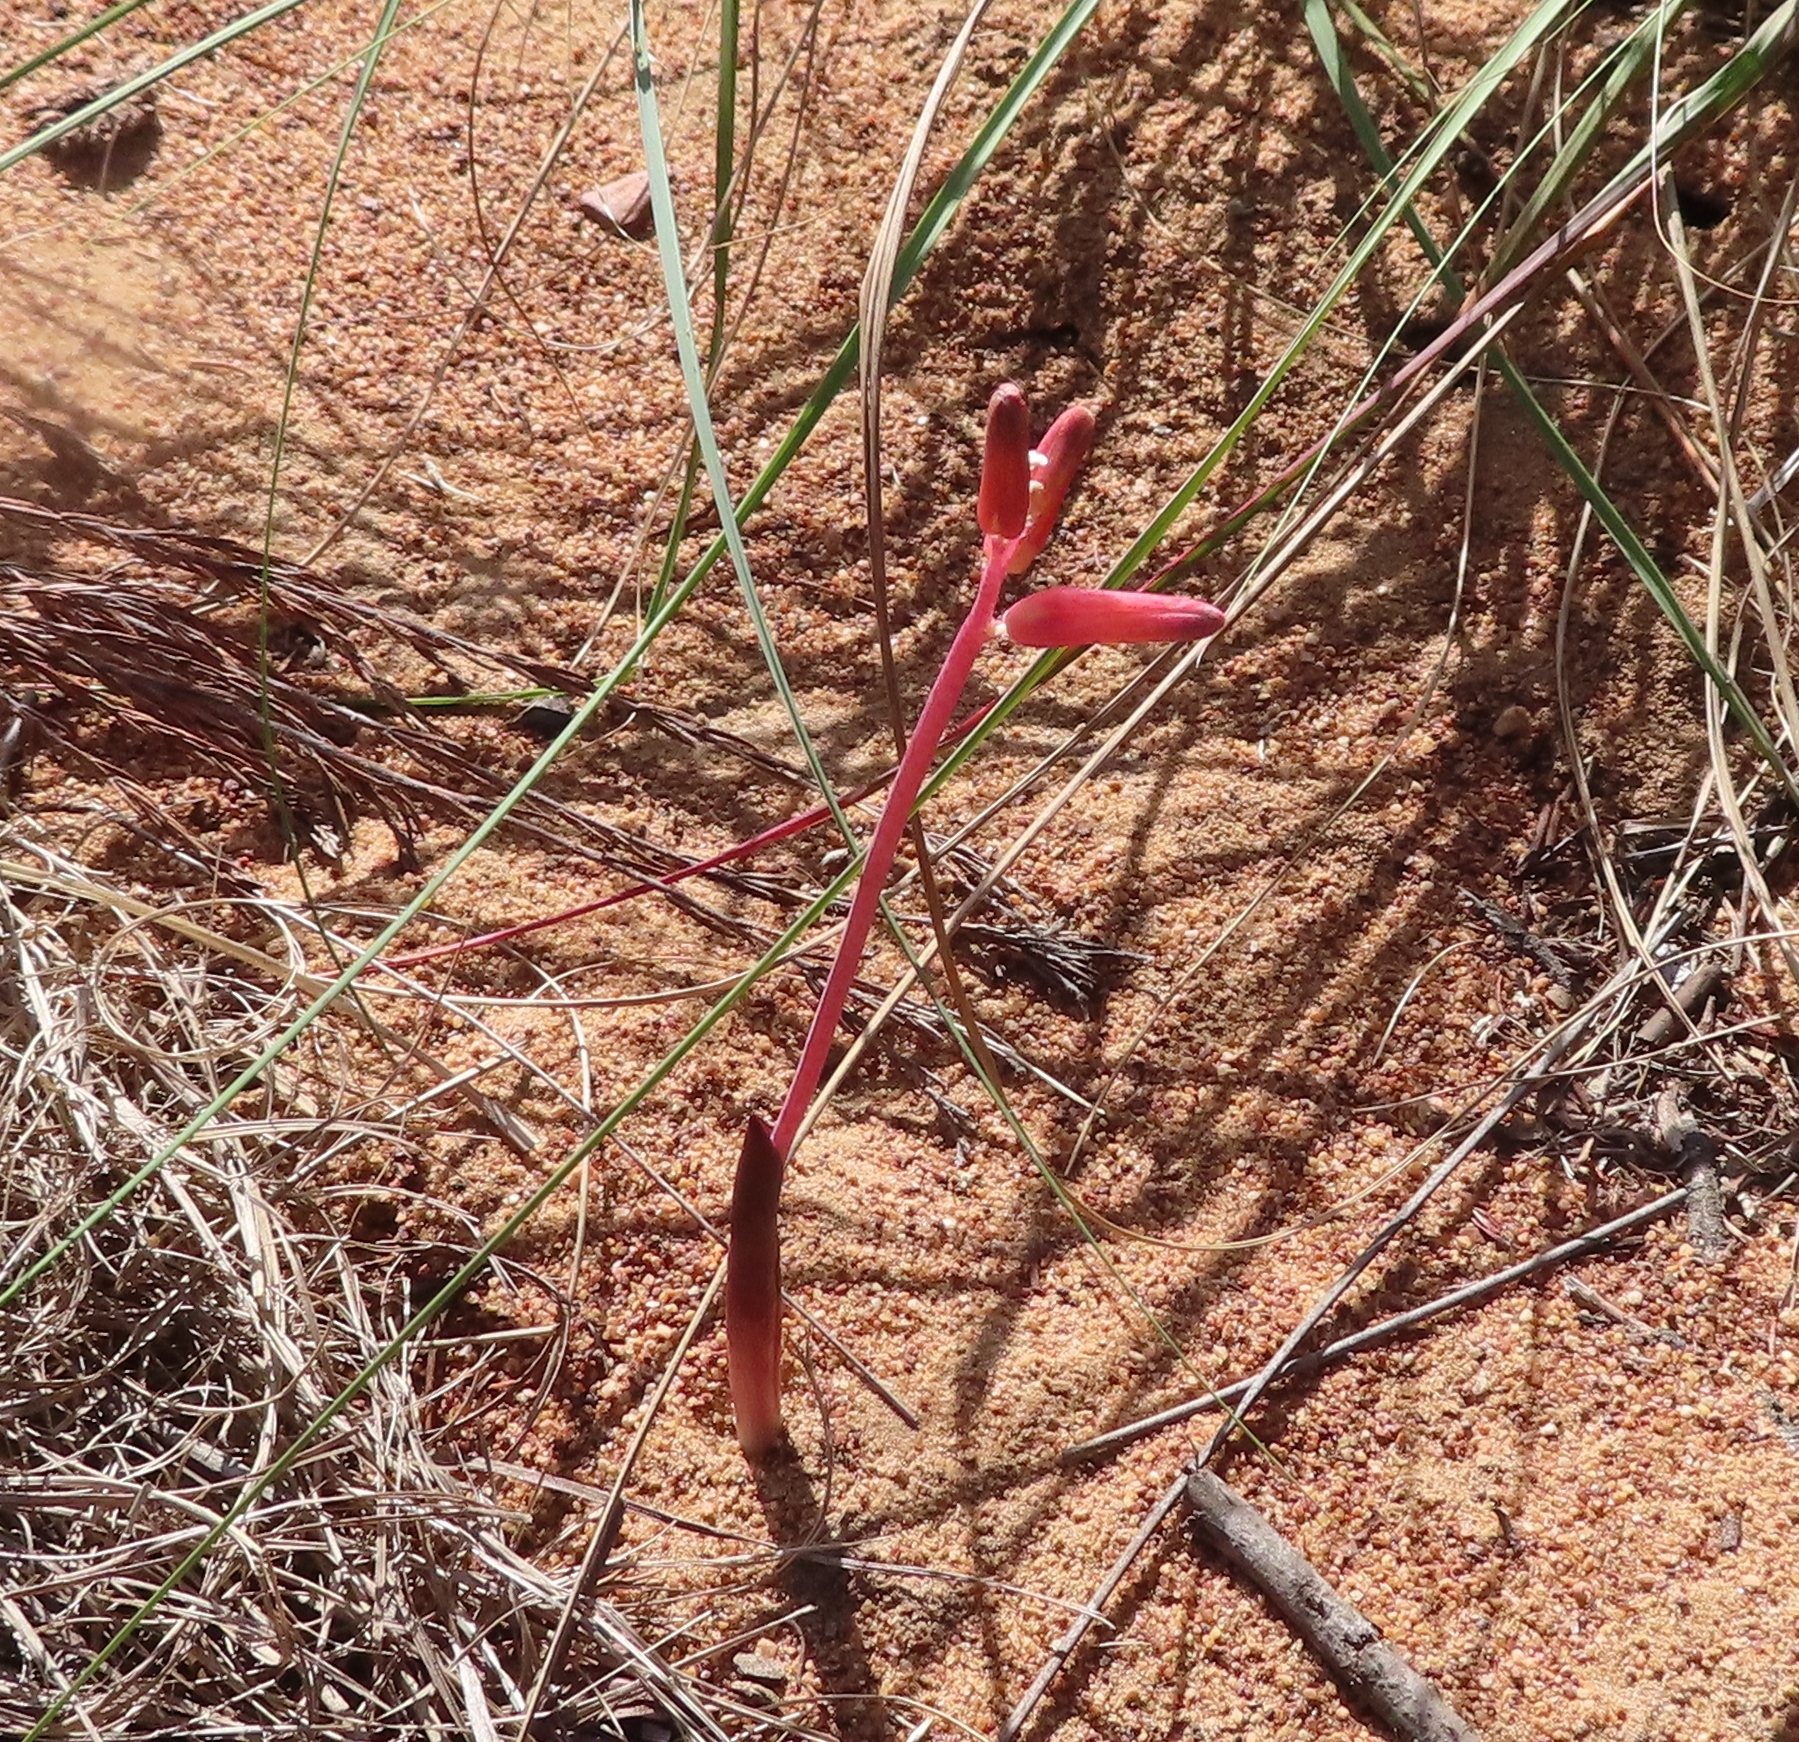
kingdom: Plantae
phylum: Tracheophyta
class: Liliopsida
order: Asparagales
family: Asparagaceae
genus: Lachenalia
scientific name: Lachenalia punctata
